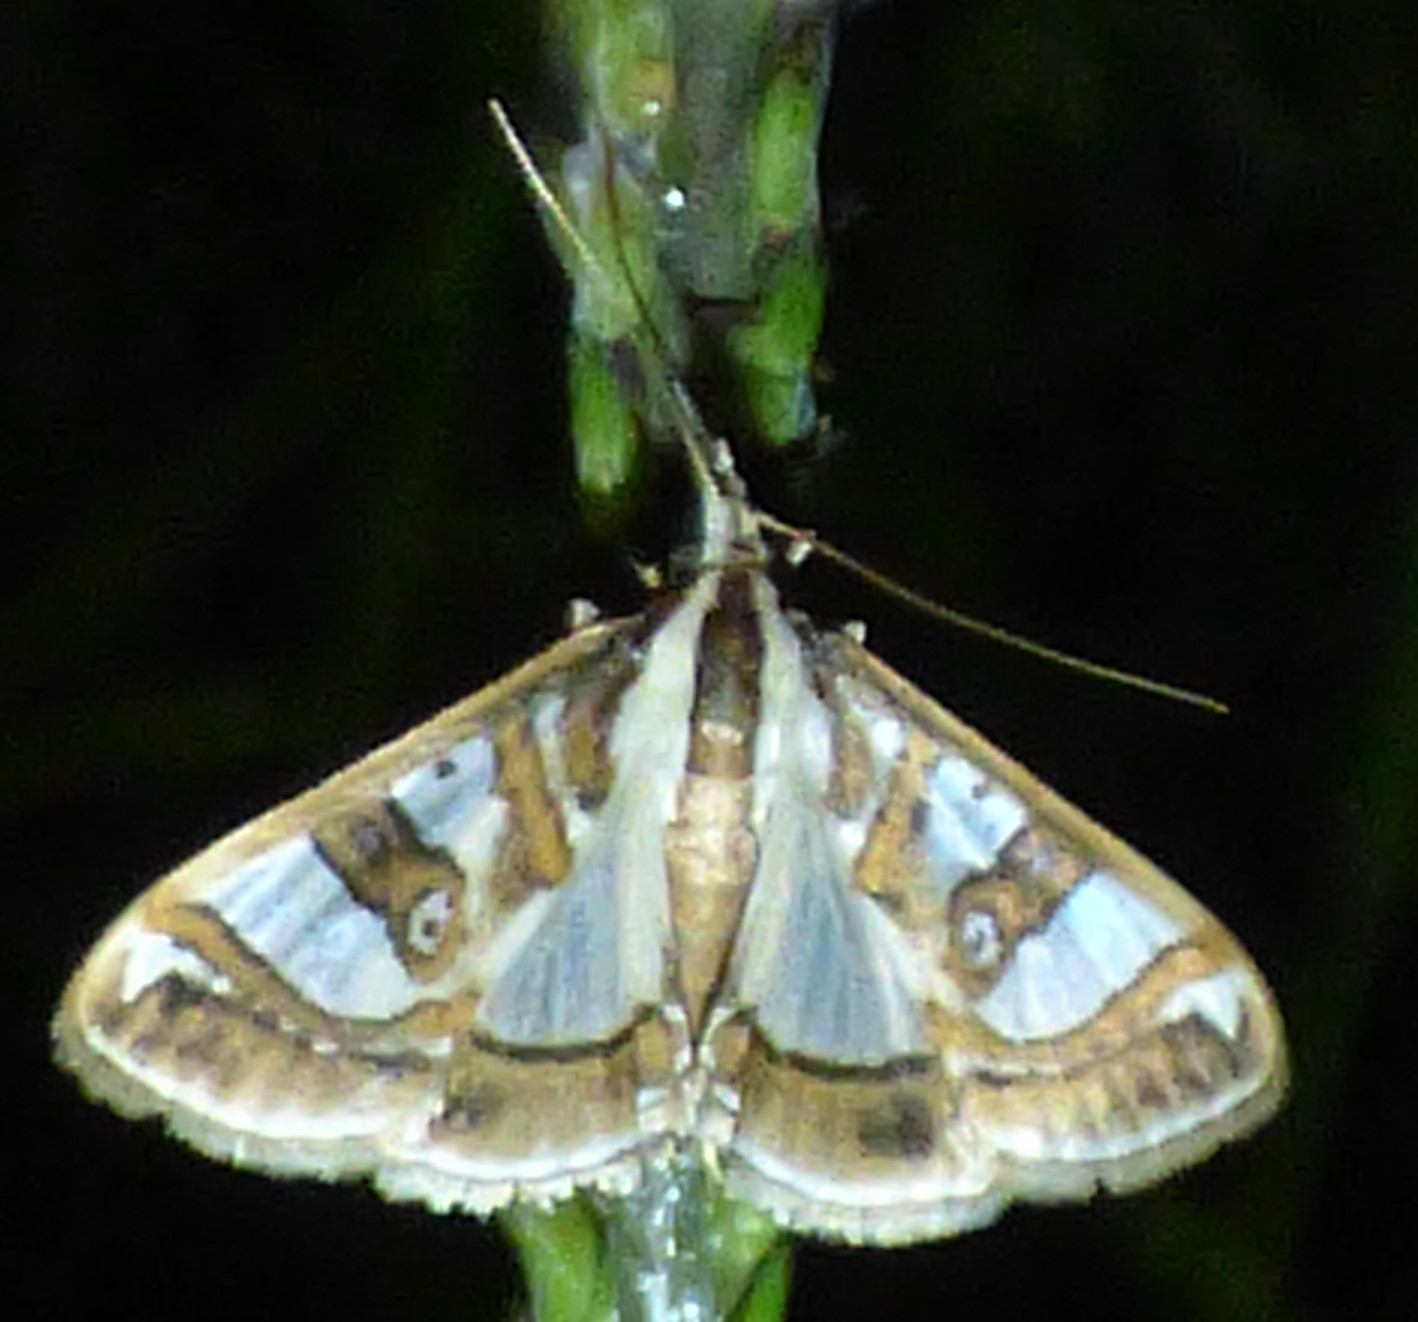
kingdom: Animalia
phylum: Arthropoda
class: Insecta
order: Lepidoptera
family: Crambidae
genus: Glyphodes
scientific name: Glyphodes pyloalis
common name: Lesser mulberry snout moth
